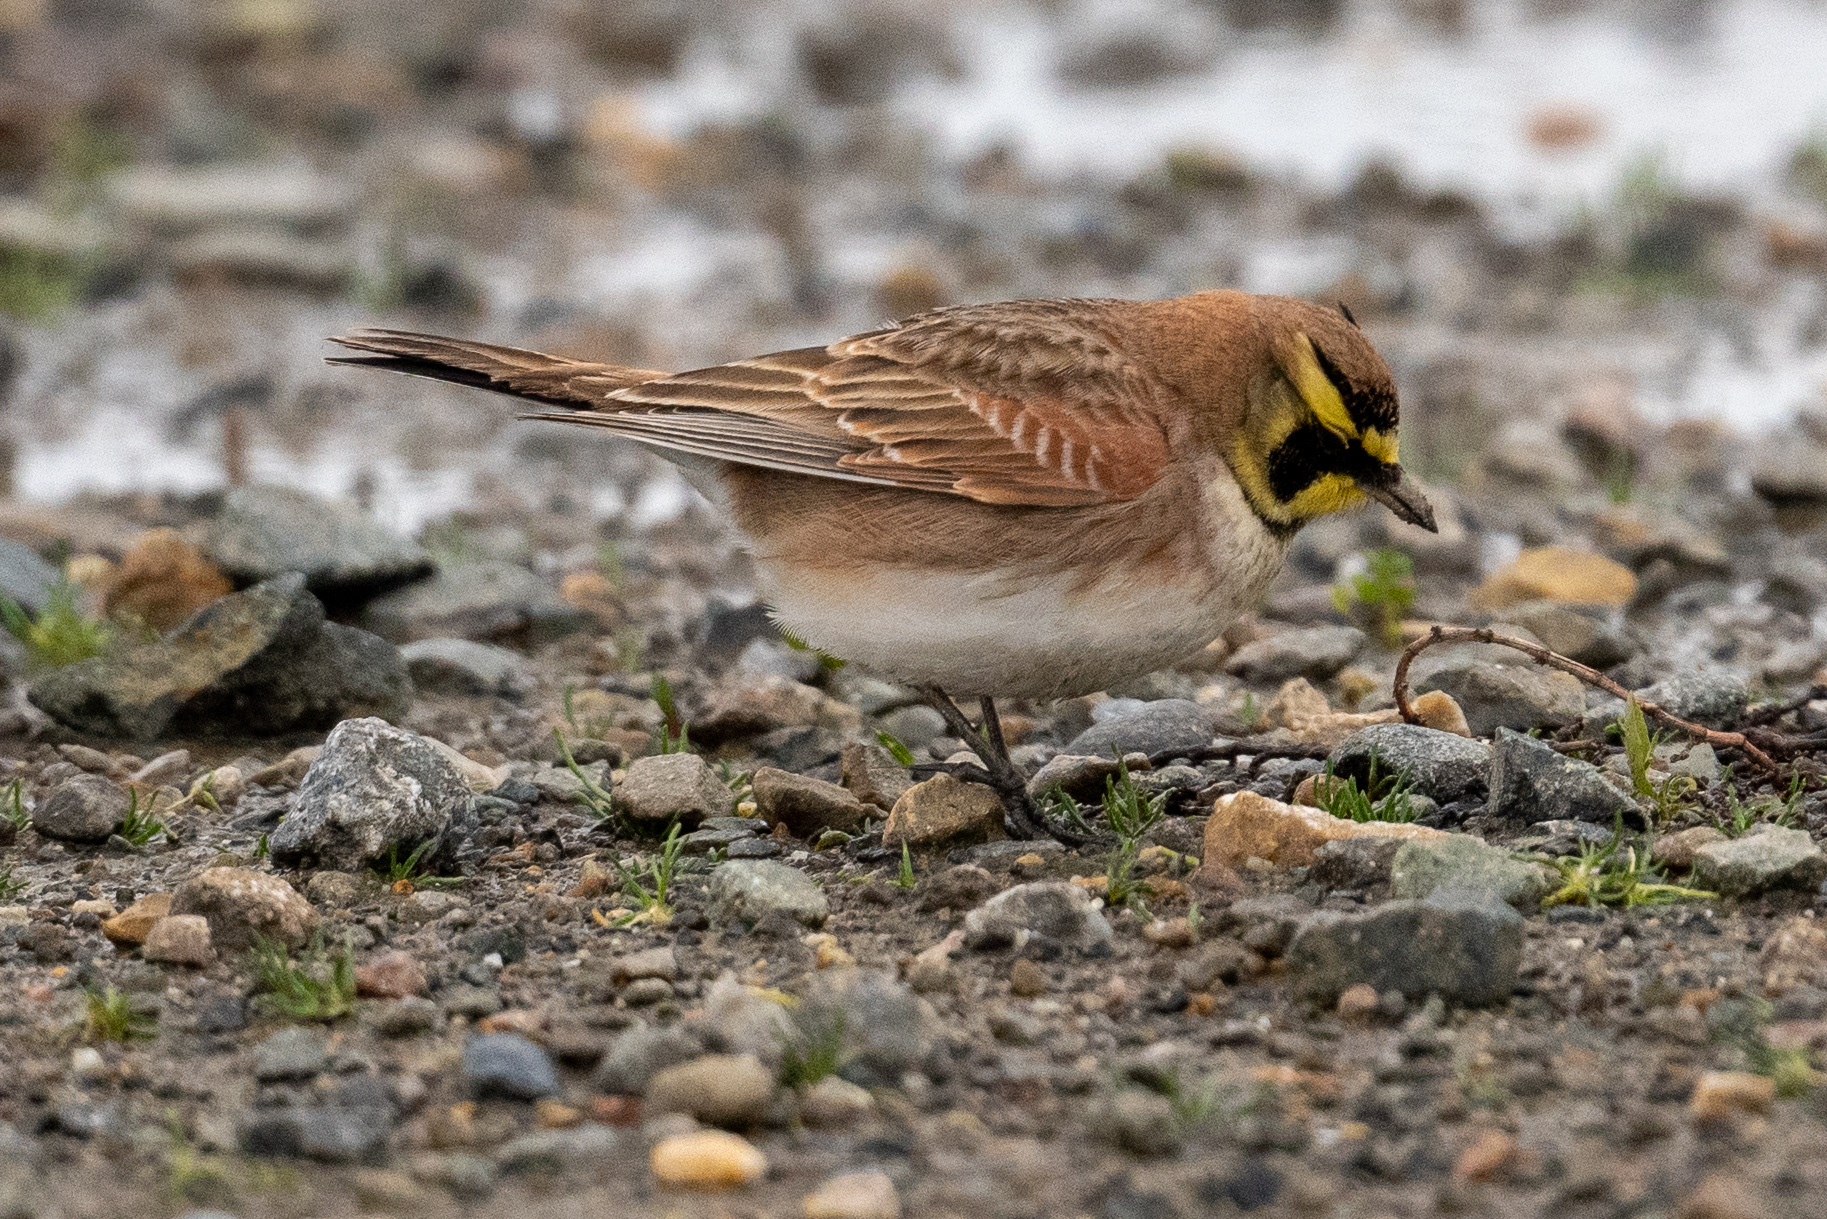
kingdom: Animalia
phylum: Chordata
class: Aves
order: Passeriformes
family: Alaudidae
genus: Eremophila
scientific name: Eremophila alpestris
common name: Horned lark
